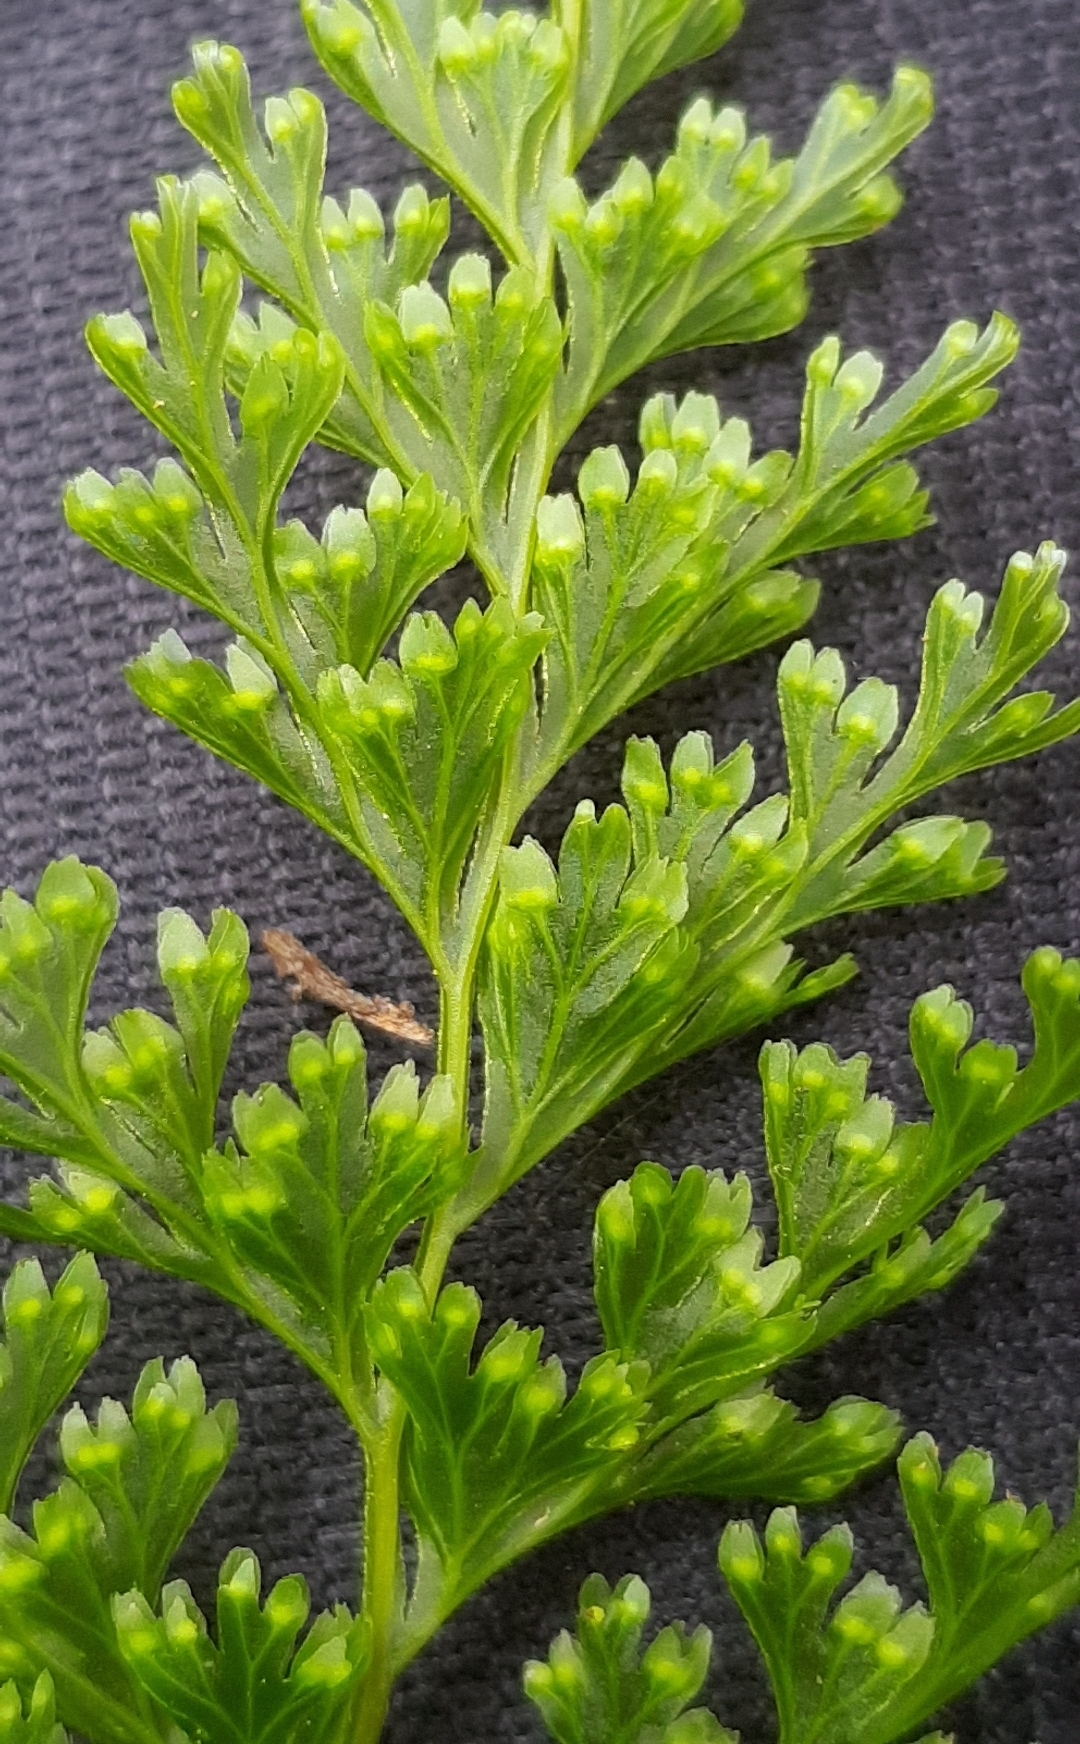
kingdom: Plantae
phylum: Tracheophyta
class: Polypodiopsida
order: Hymenophyllales
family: Hymenophyllaceae
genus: Hymenophyllum
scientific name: Hymenophyllum demissum
